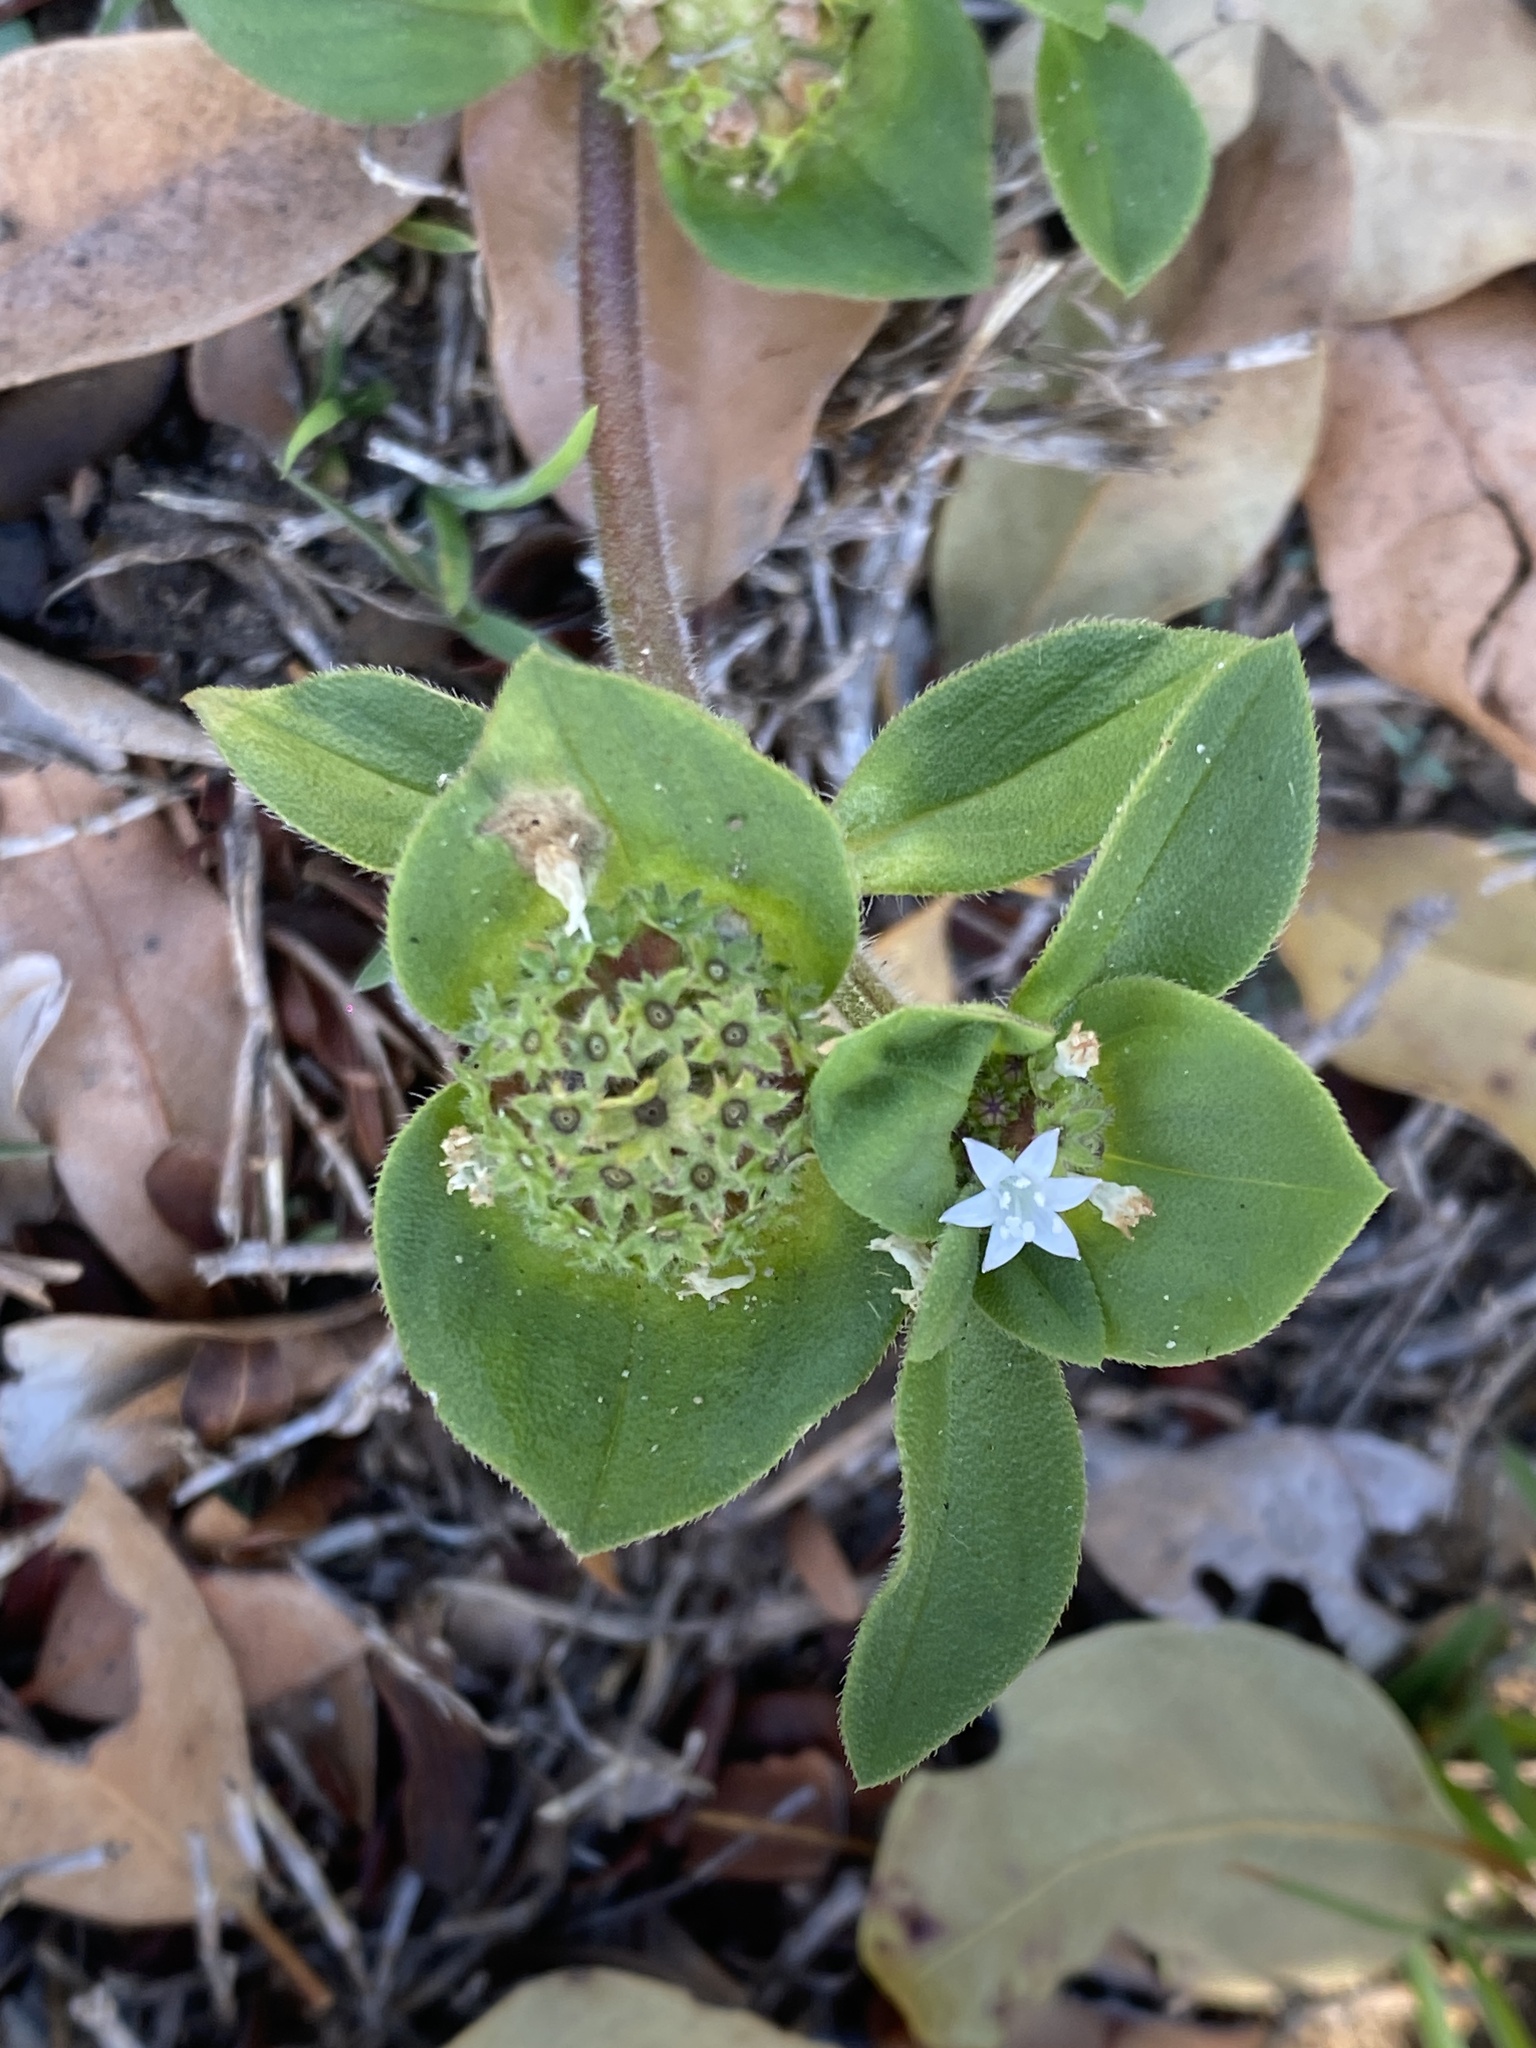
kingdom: Plantae
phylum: Tracheophyta
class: Magnoliopsida
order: Gentianales
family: Rubiaceae
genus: Richardia
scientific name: Richardia brasiliensis
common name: Tropical mexican clover
